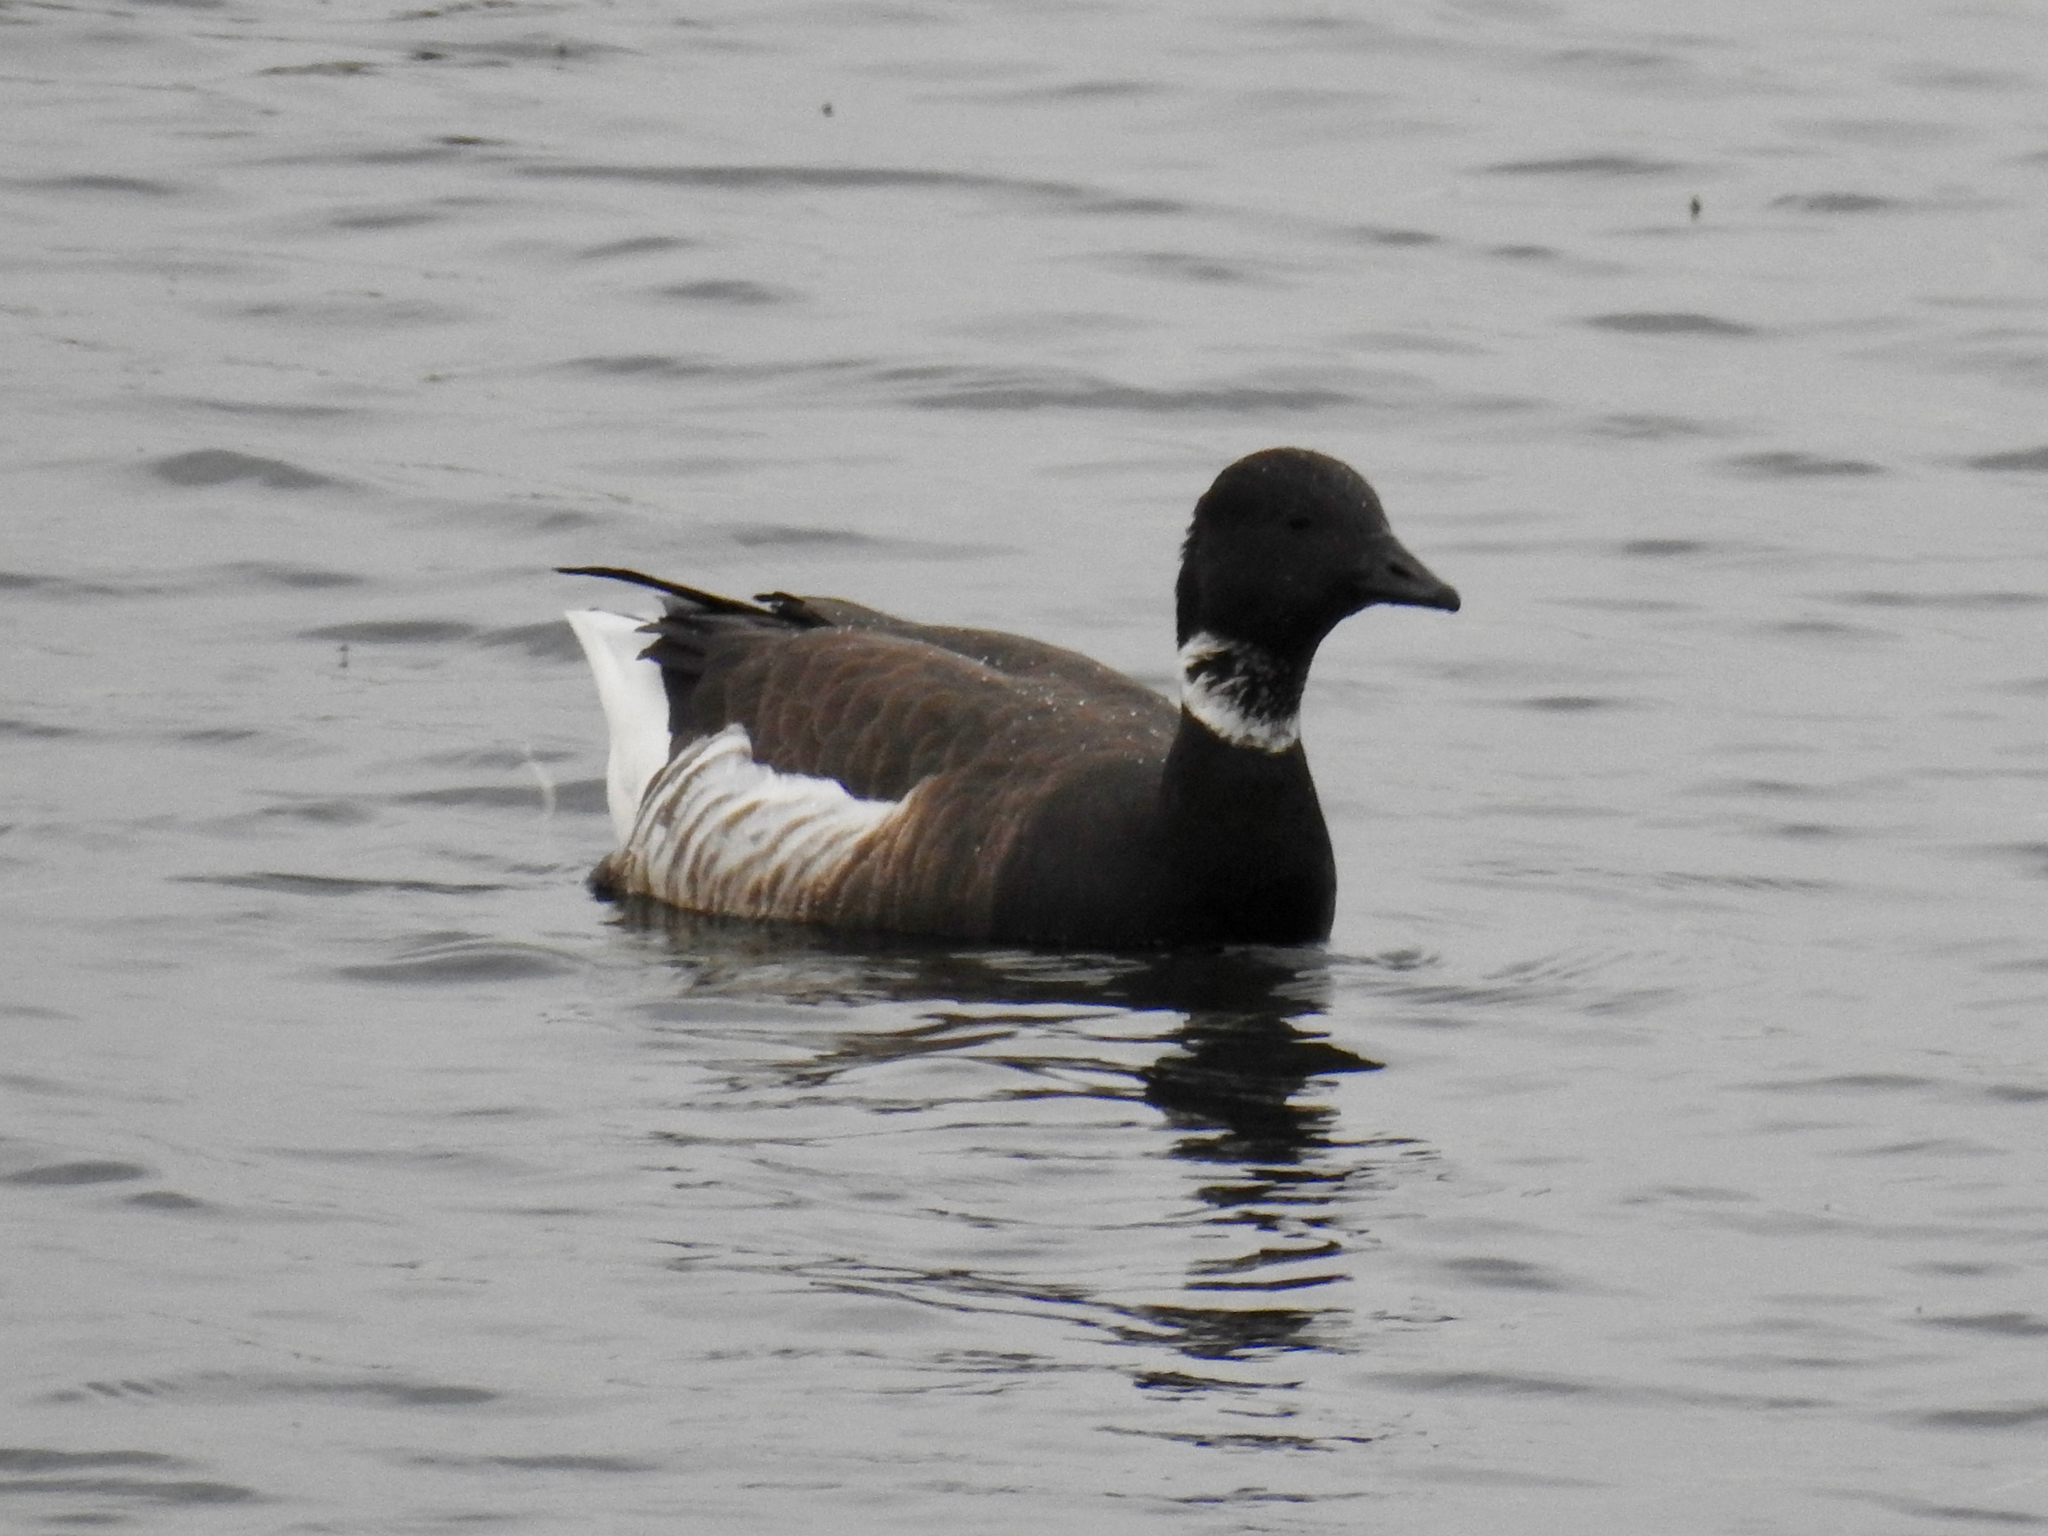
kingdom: Animalia
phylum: Chordata
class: Aves
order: Anseriformes
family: Anatidae
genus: Branta
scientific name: Branta bernicla
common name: Brant goose
